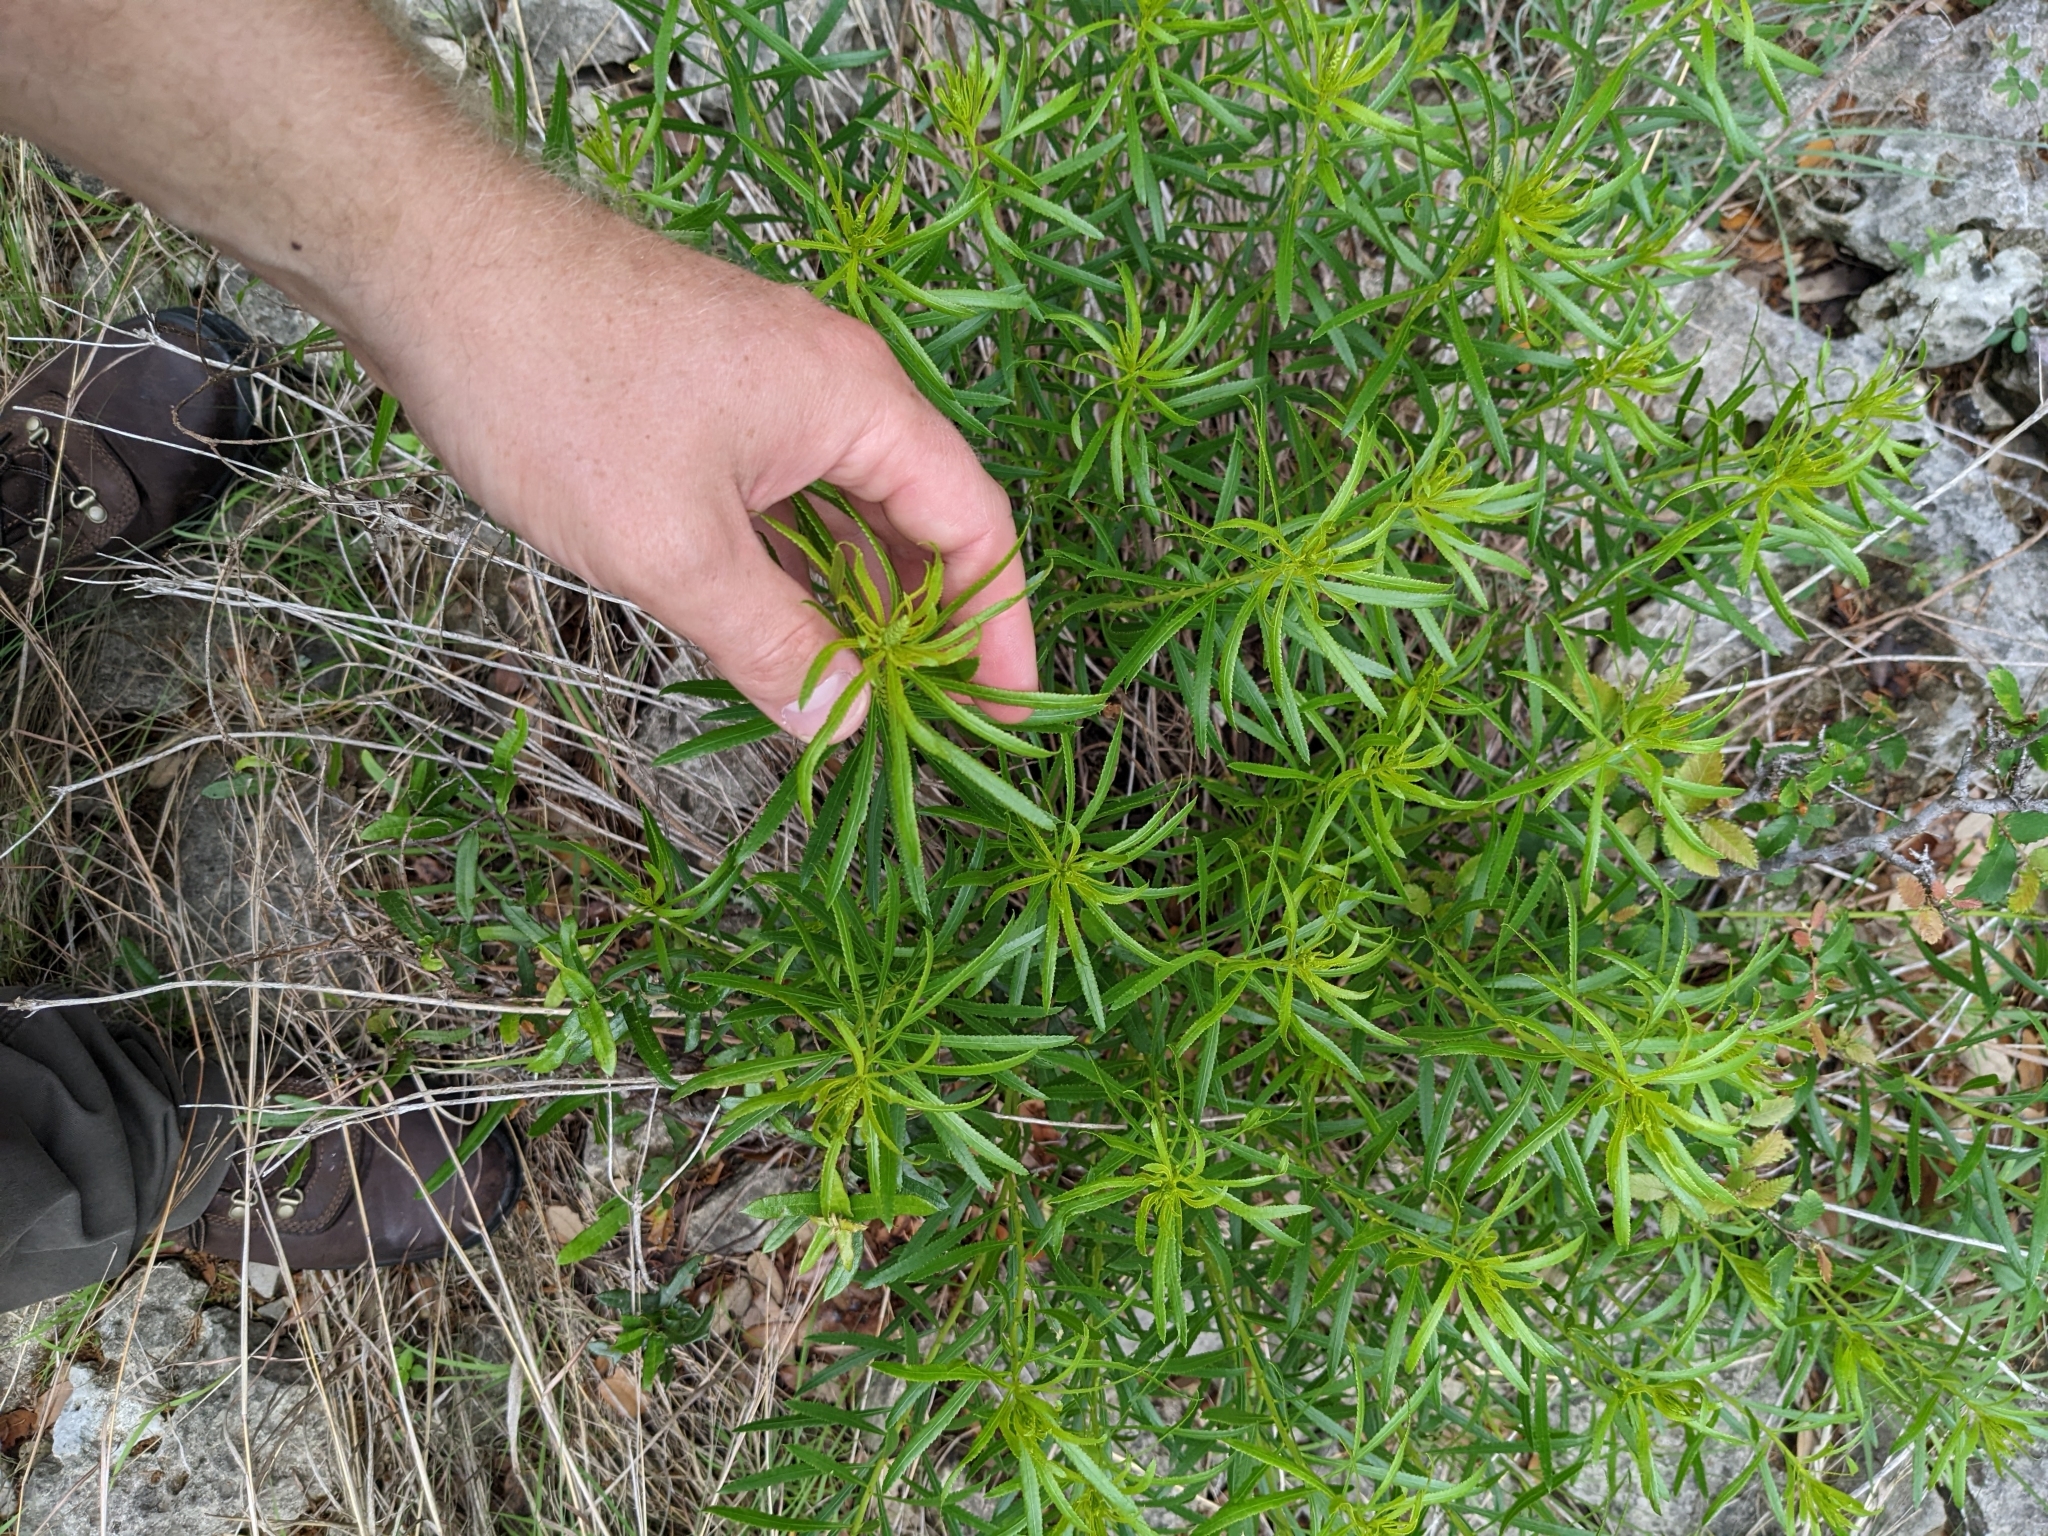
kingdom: Plantae
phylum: Tracheophyta
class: Magnoliopsida
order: Malpighiales
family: Euphorbiaceae
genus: Stillingia
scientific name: Stillingia texana
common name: Texas stillingia
